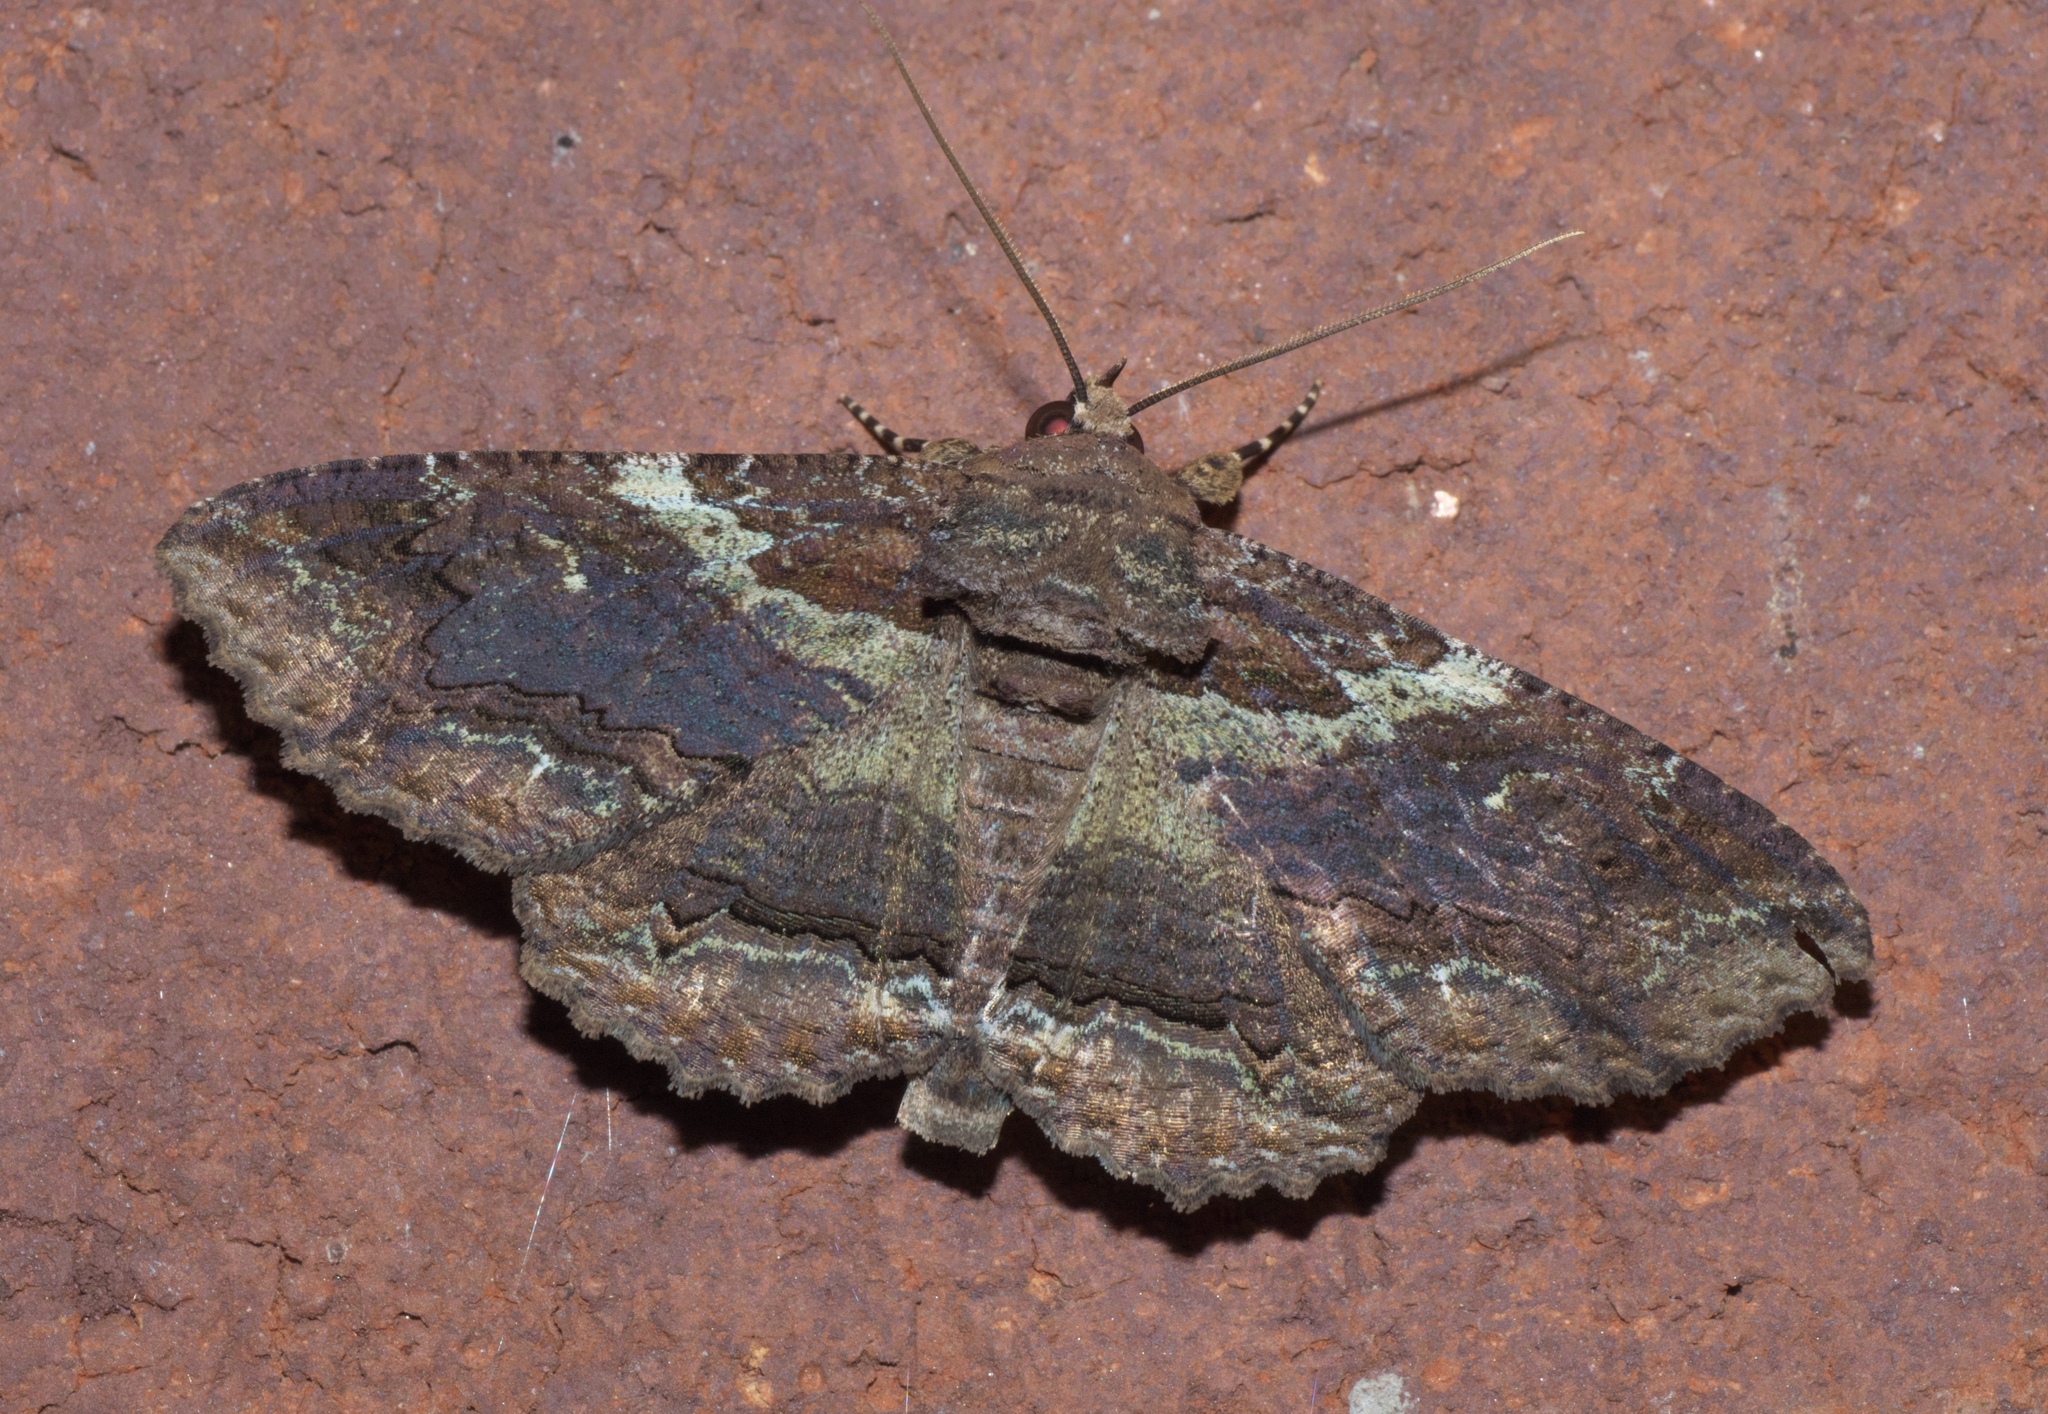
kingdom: Animalia
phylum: Arthropoda
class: Insecta
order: Lepidoptera
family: Erebidae
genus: Zale
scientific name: Zale lunata
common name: Lunate zale moth
